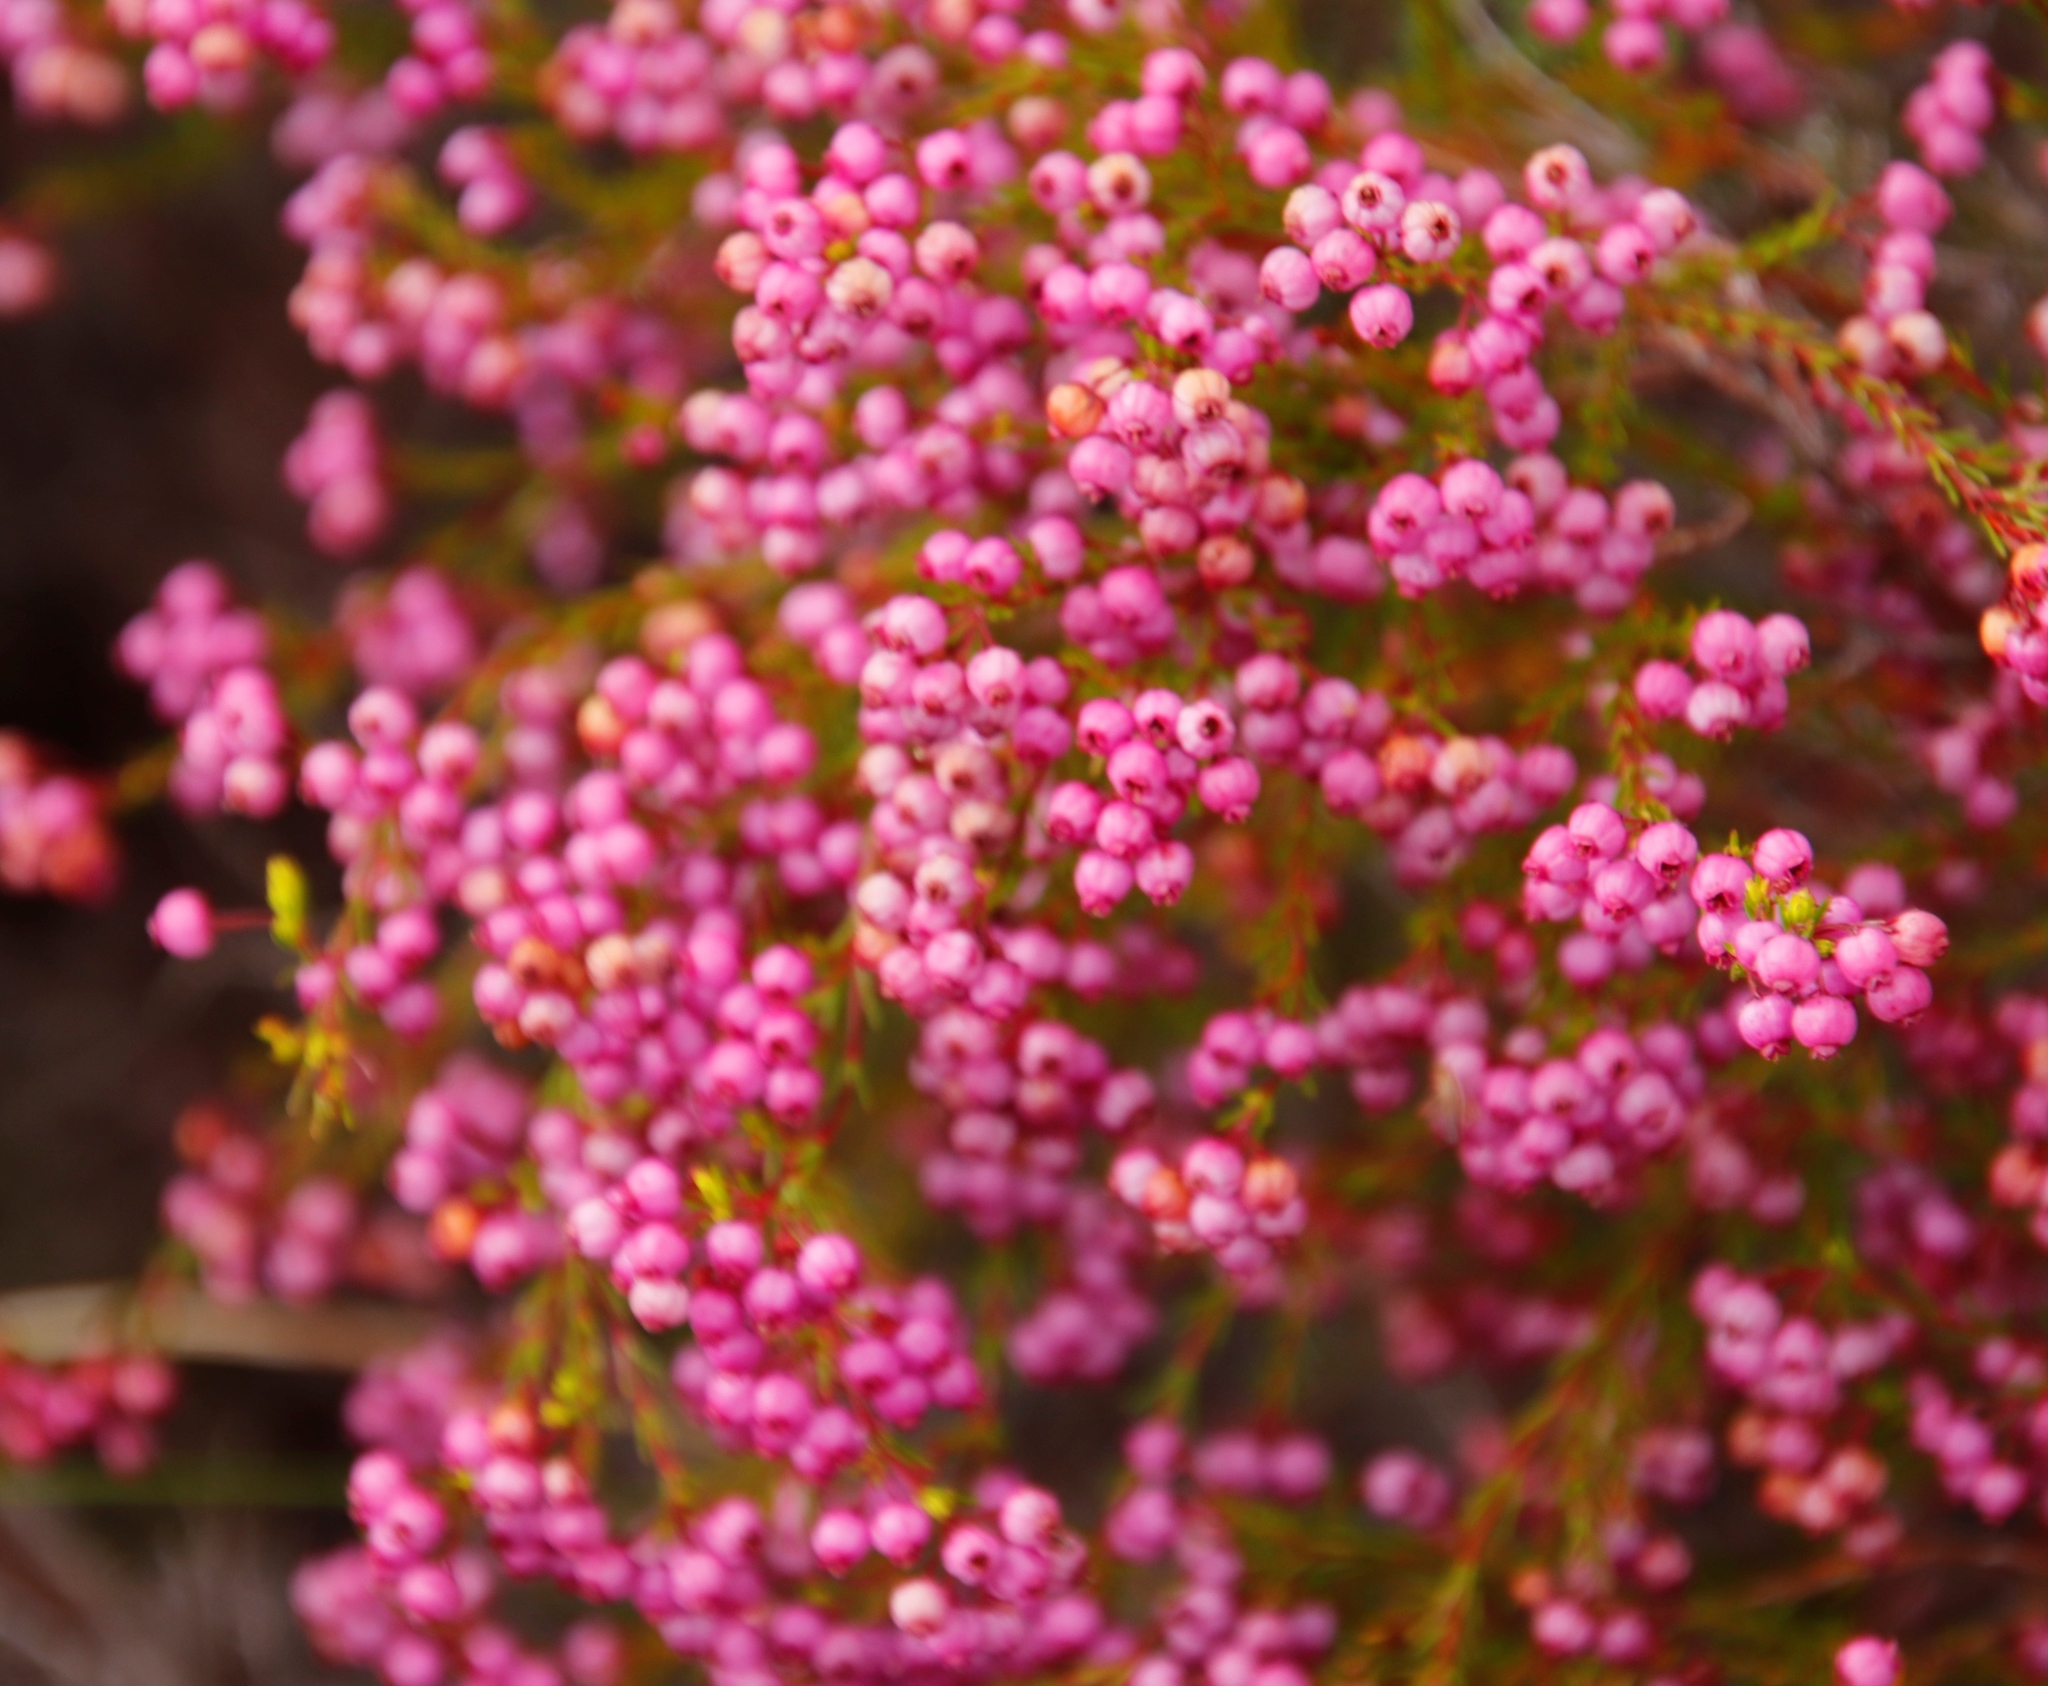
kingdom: Plantae
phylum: Tracheophyta
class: Magnoliopsida
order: Ericales
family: Ericaceae
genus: Erica
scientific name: Erica multumbellifera
